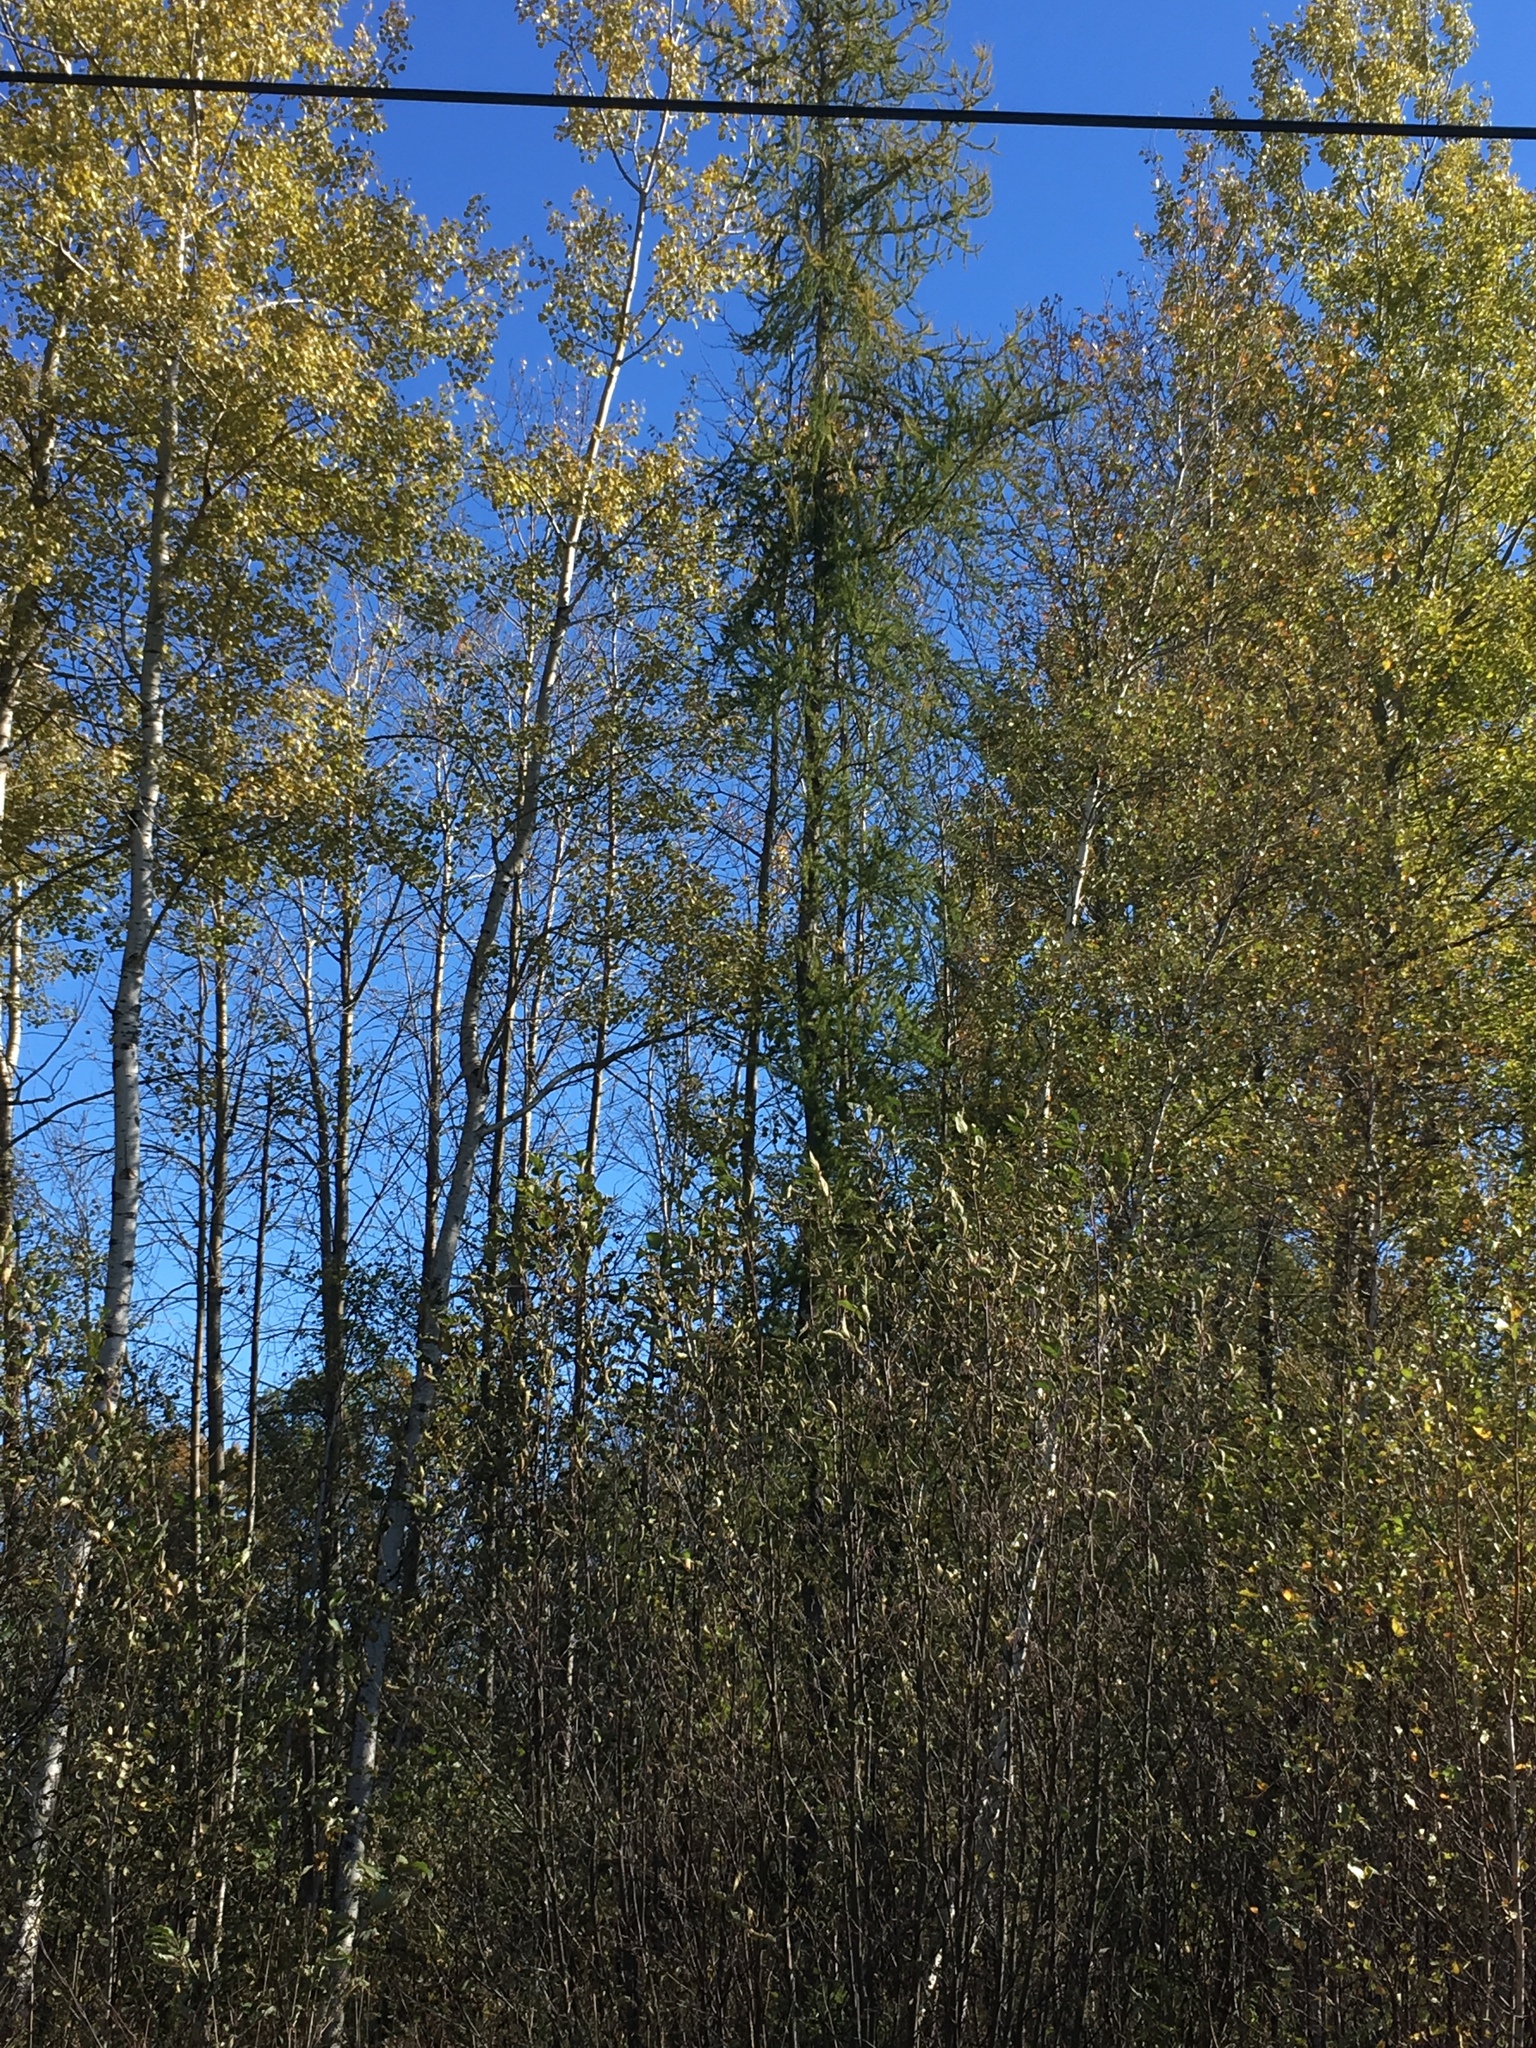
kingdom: Plantae
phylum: Tracheophyta
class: Pinopsida
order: Pinales
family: Pinaceae
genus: Larix
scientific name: Larix laricina
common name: American larch
